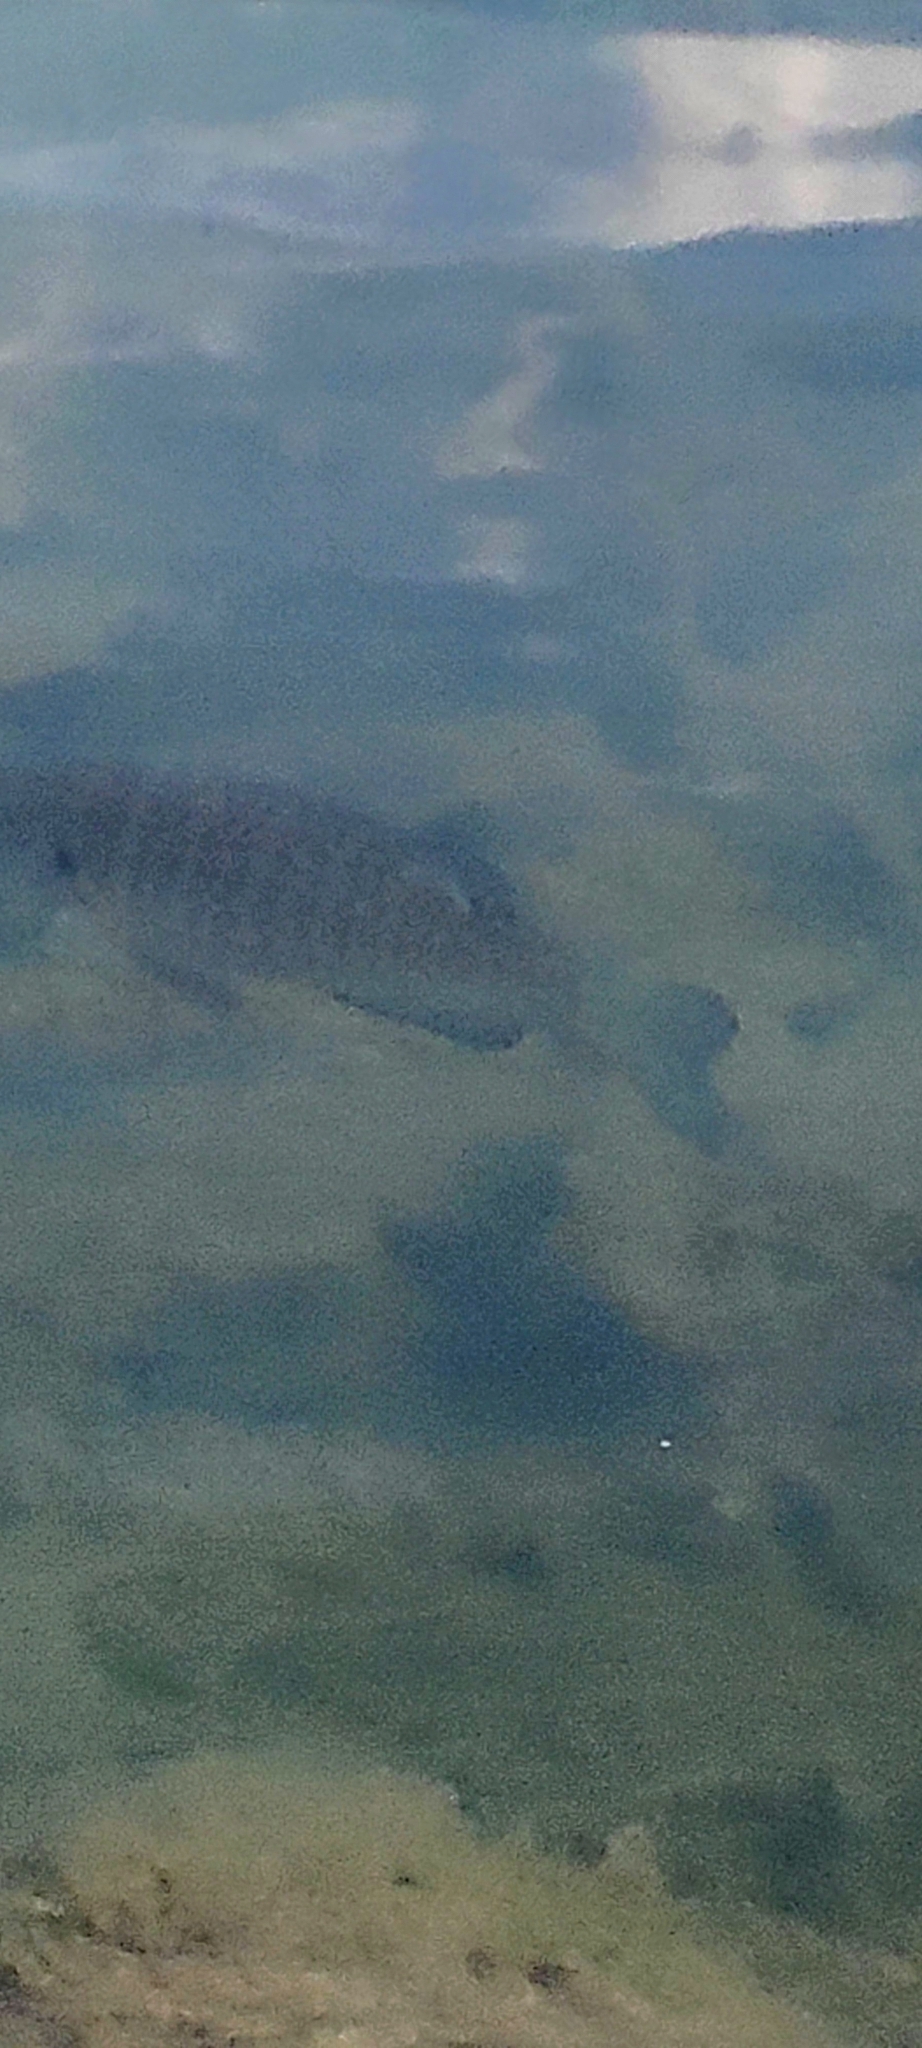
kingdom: Animalia
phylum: Chordata
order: Perciformes
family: Centrarchidae
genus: Lepomis
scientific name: Lepomis macrochirus
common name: Bluegill
